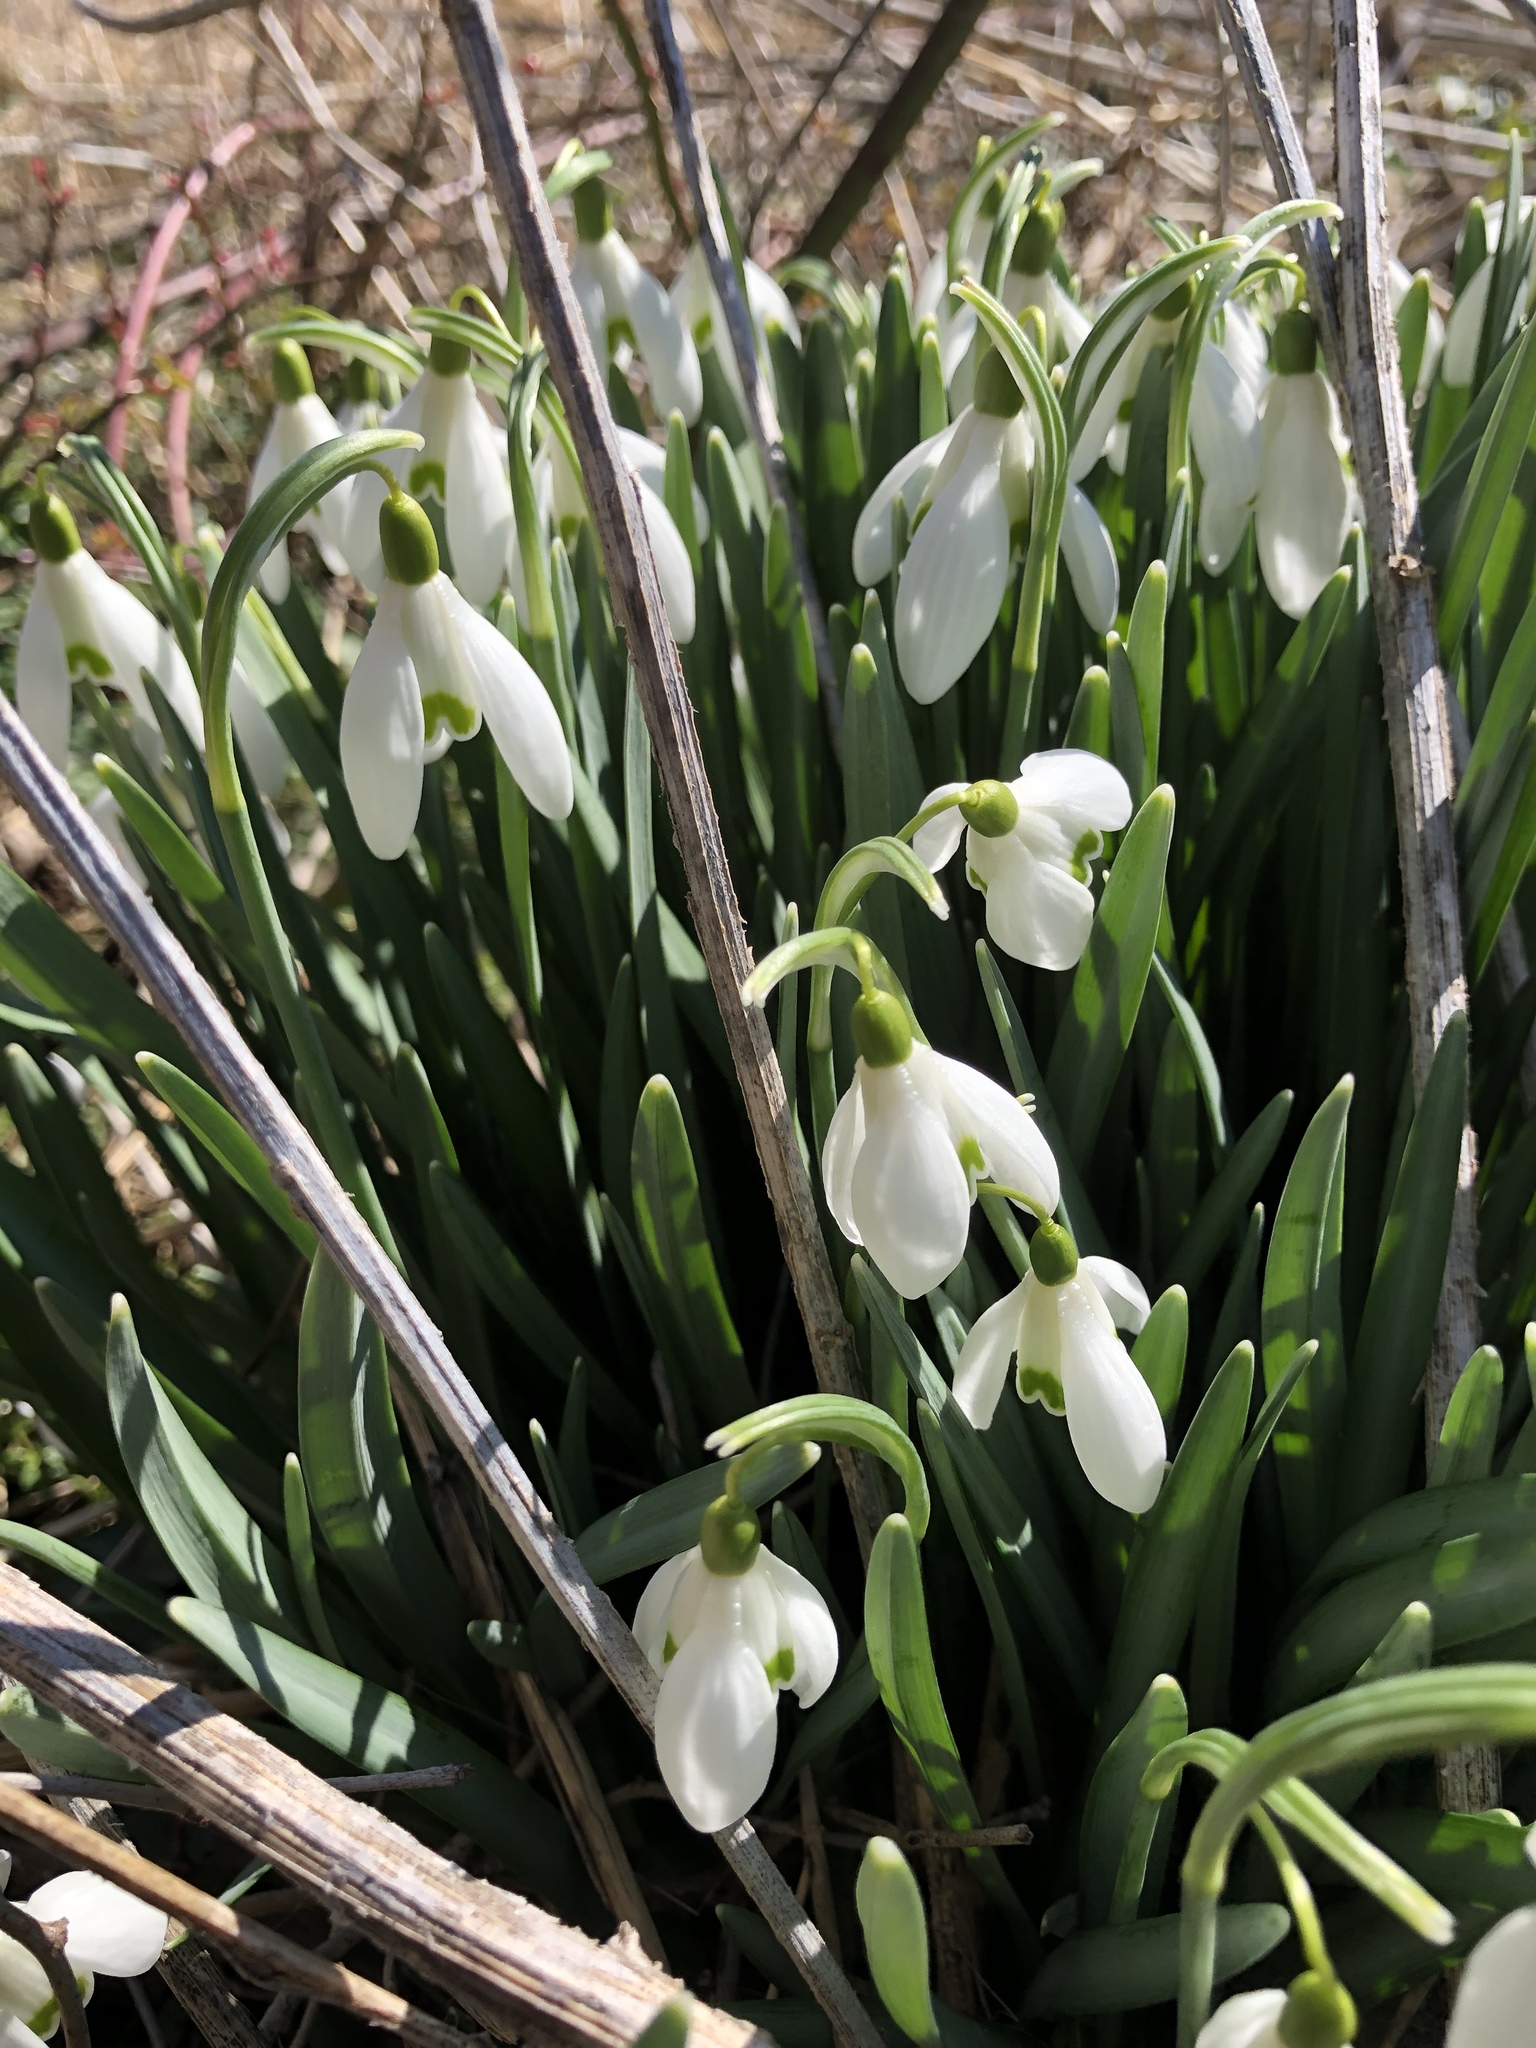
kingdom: Plantae
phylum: Tracheophyta
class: Liliopsida
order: Asparagales
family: Amaryllidaceae
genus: Galanthus
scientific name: Galanthus nivalis
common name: Snowdrop
